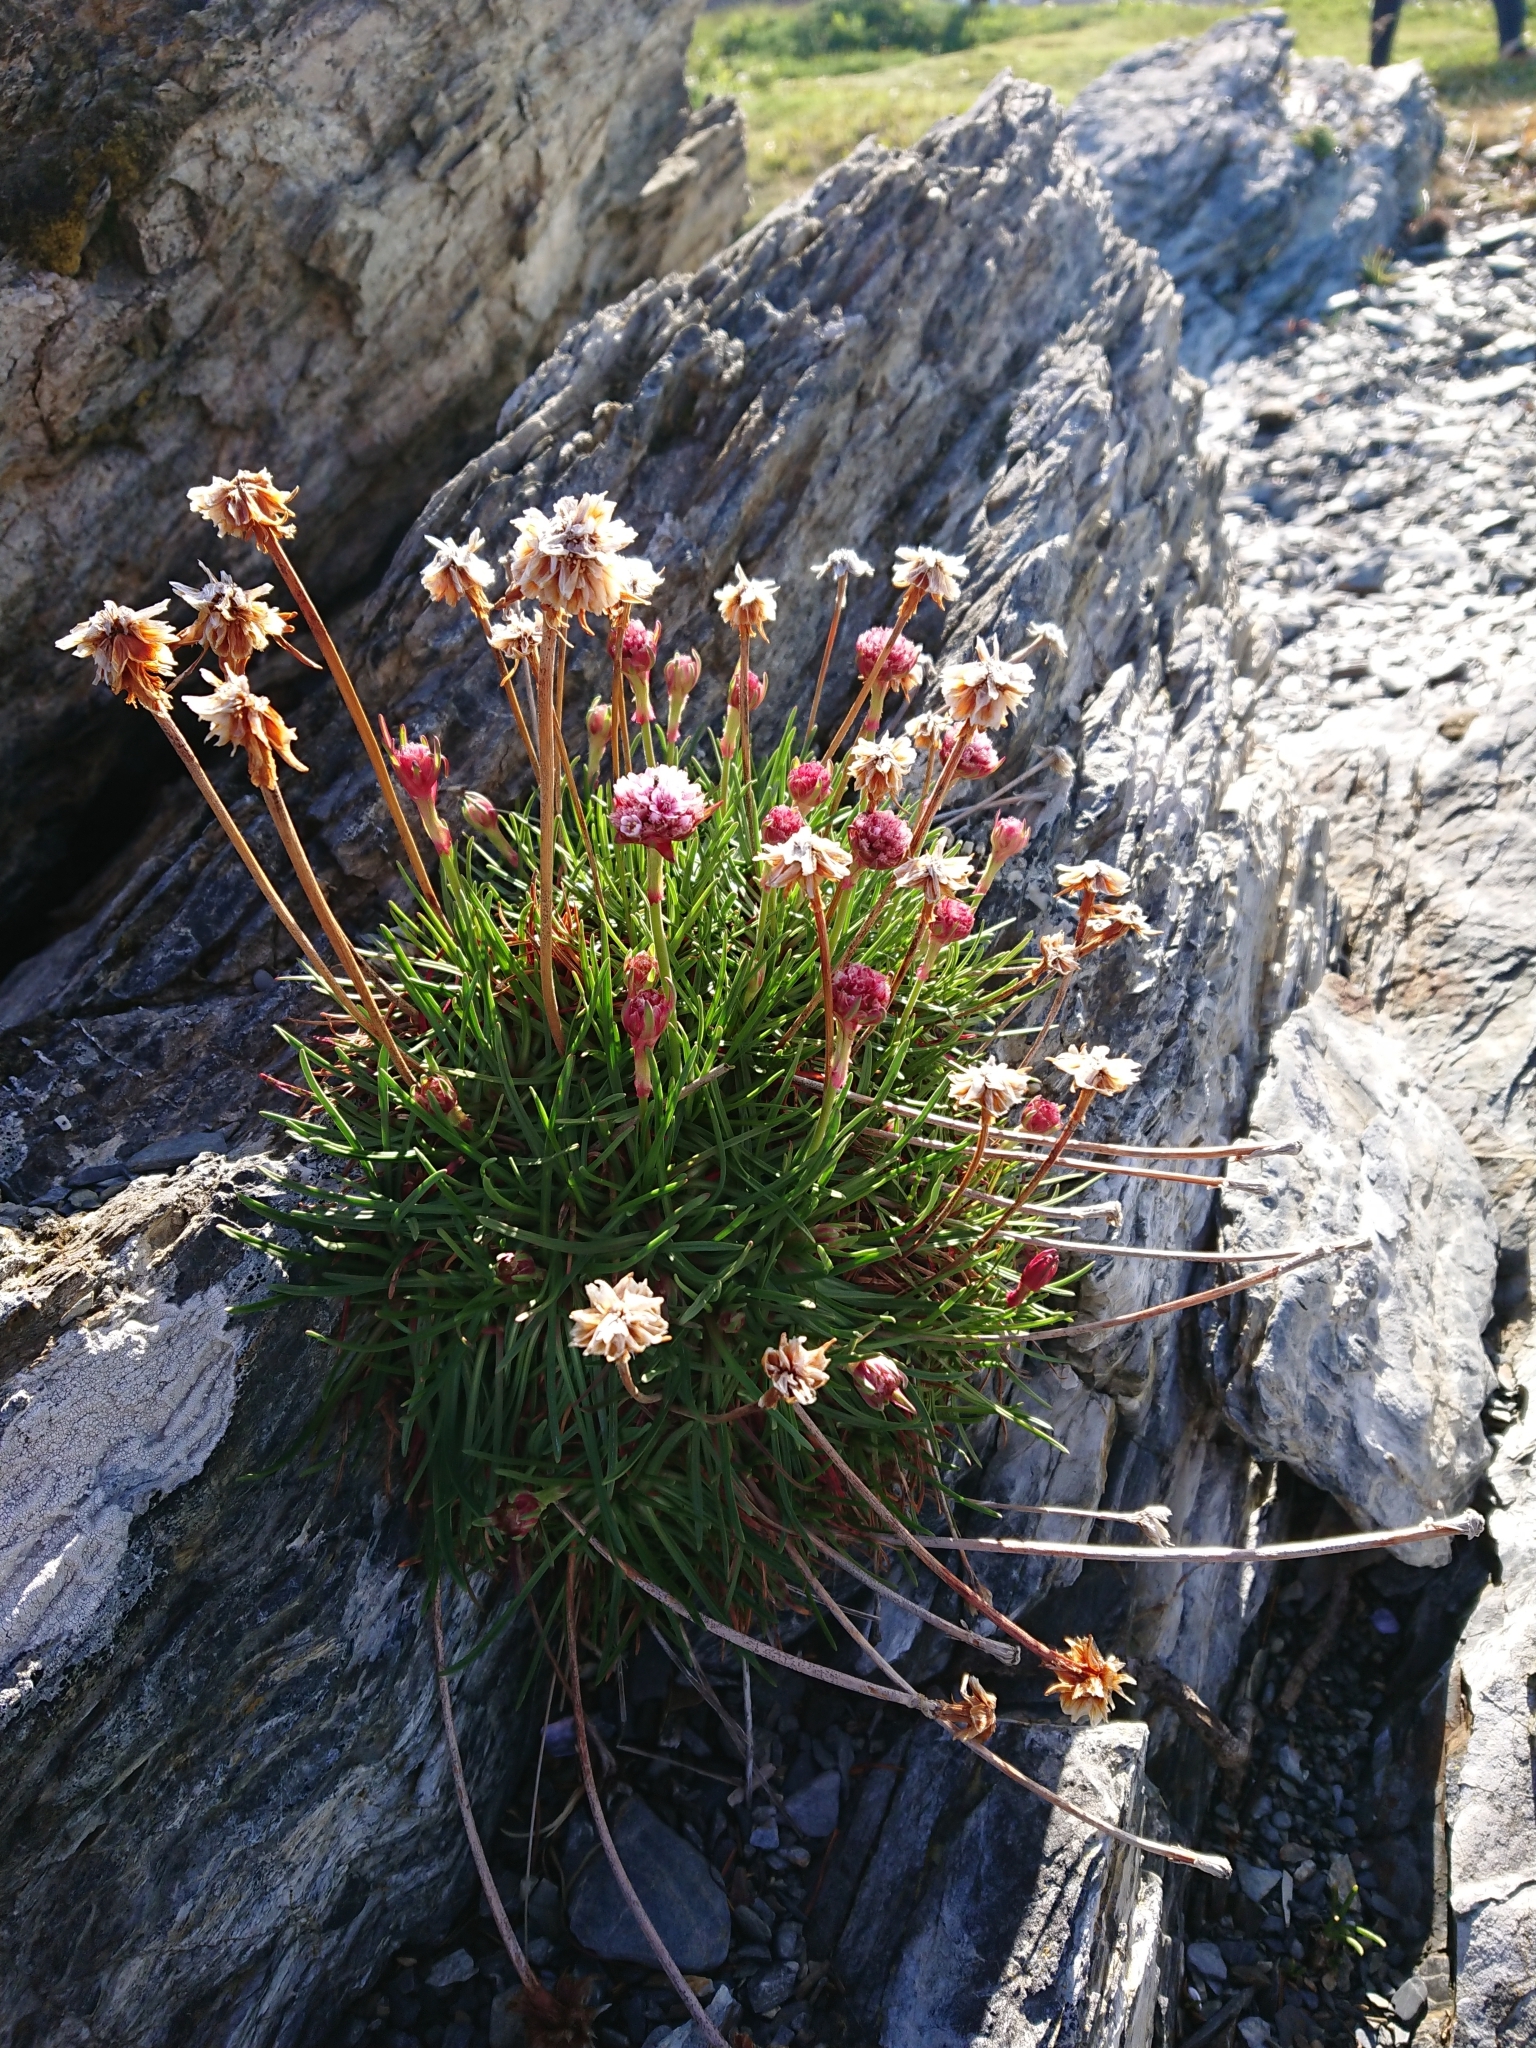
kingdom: Plantae
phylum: Tracheophyta
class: Magnoliopsida
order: Caryophyllales
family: Plumbaginaceae
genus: Armeria
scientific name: Armeria curvifolia
